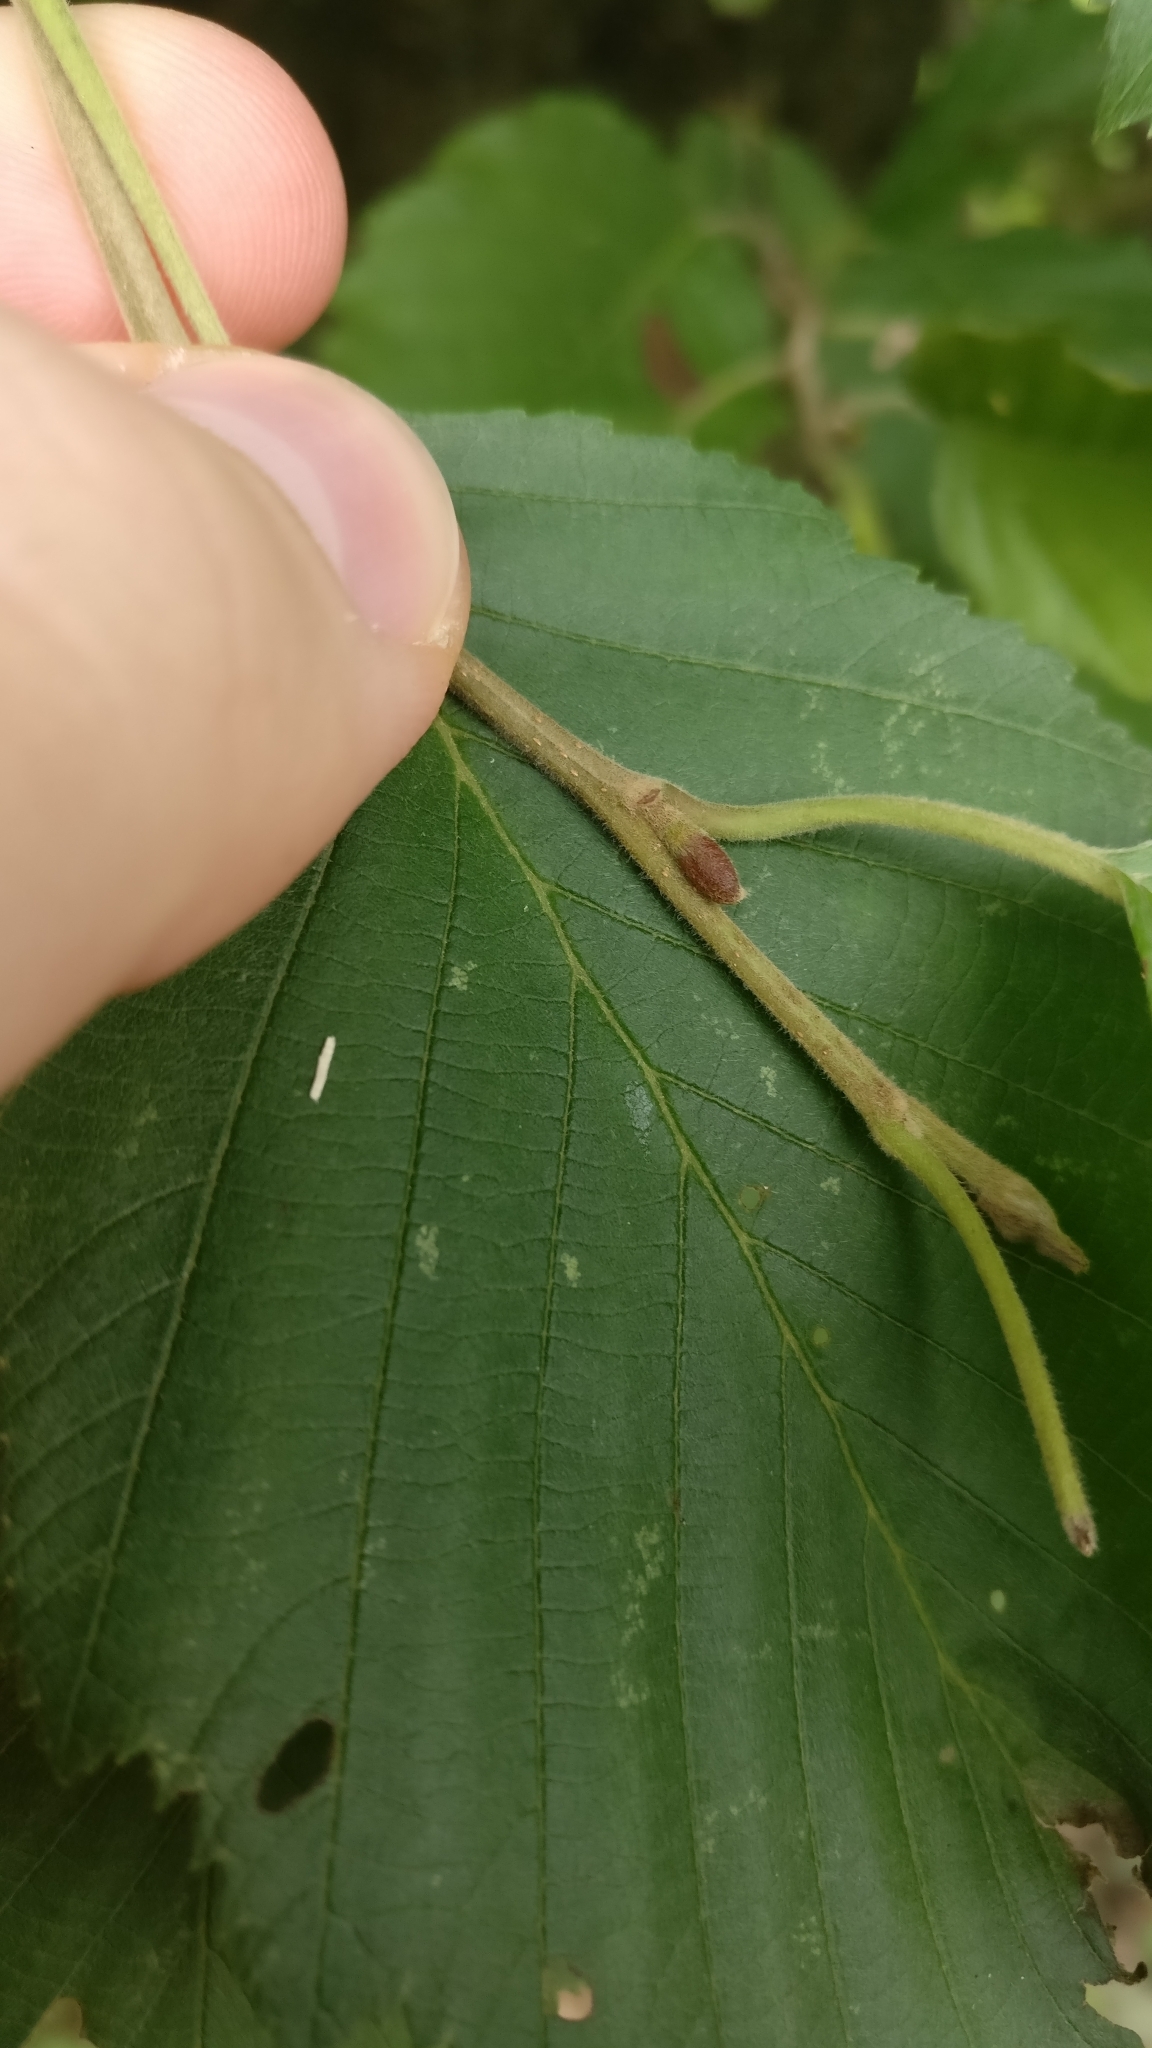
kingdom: Plantae
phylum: Tracheophyta
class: Magnoliopsida
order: Fagales
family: Betulaceae
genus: Alnus
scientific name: Alnus incana
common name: Grey alder
